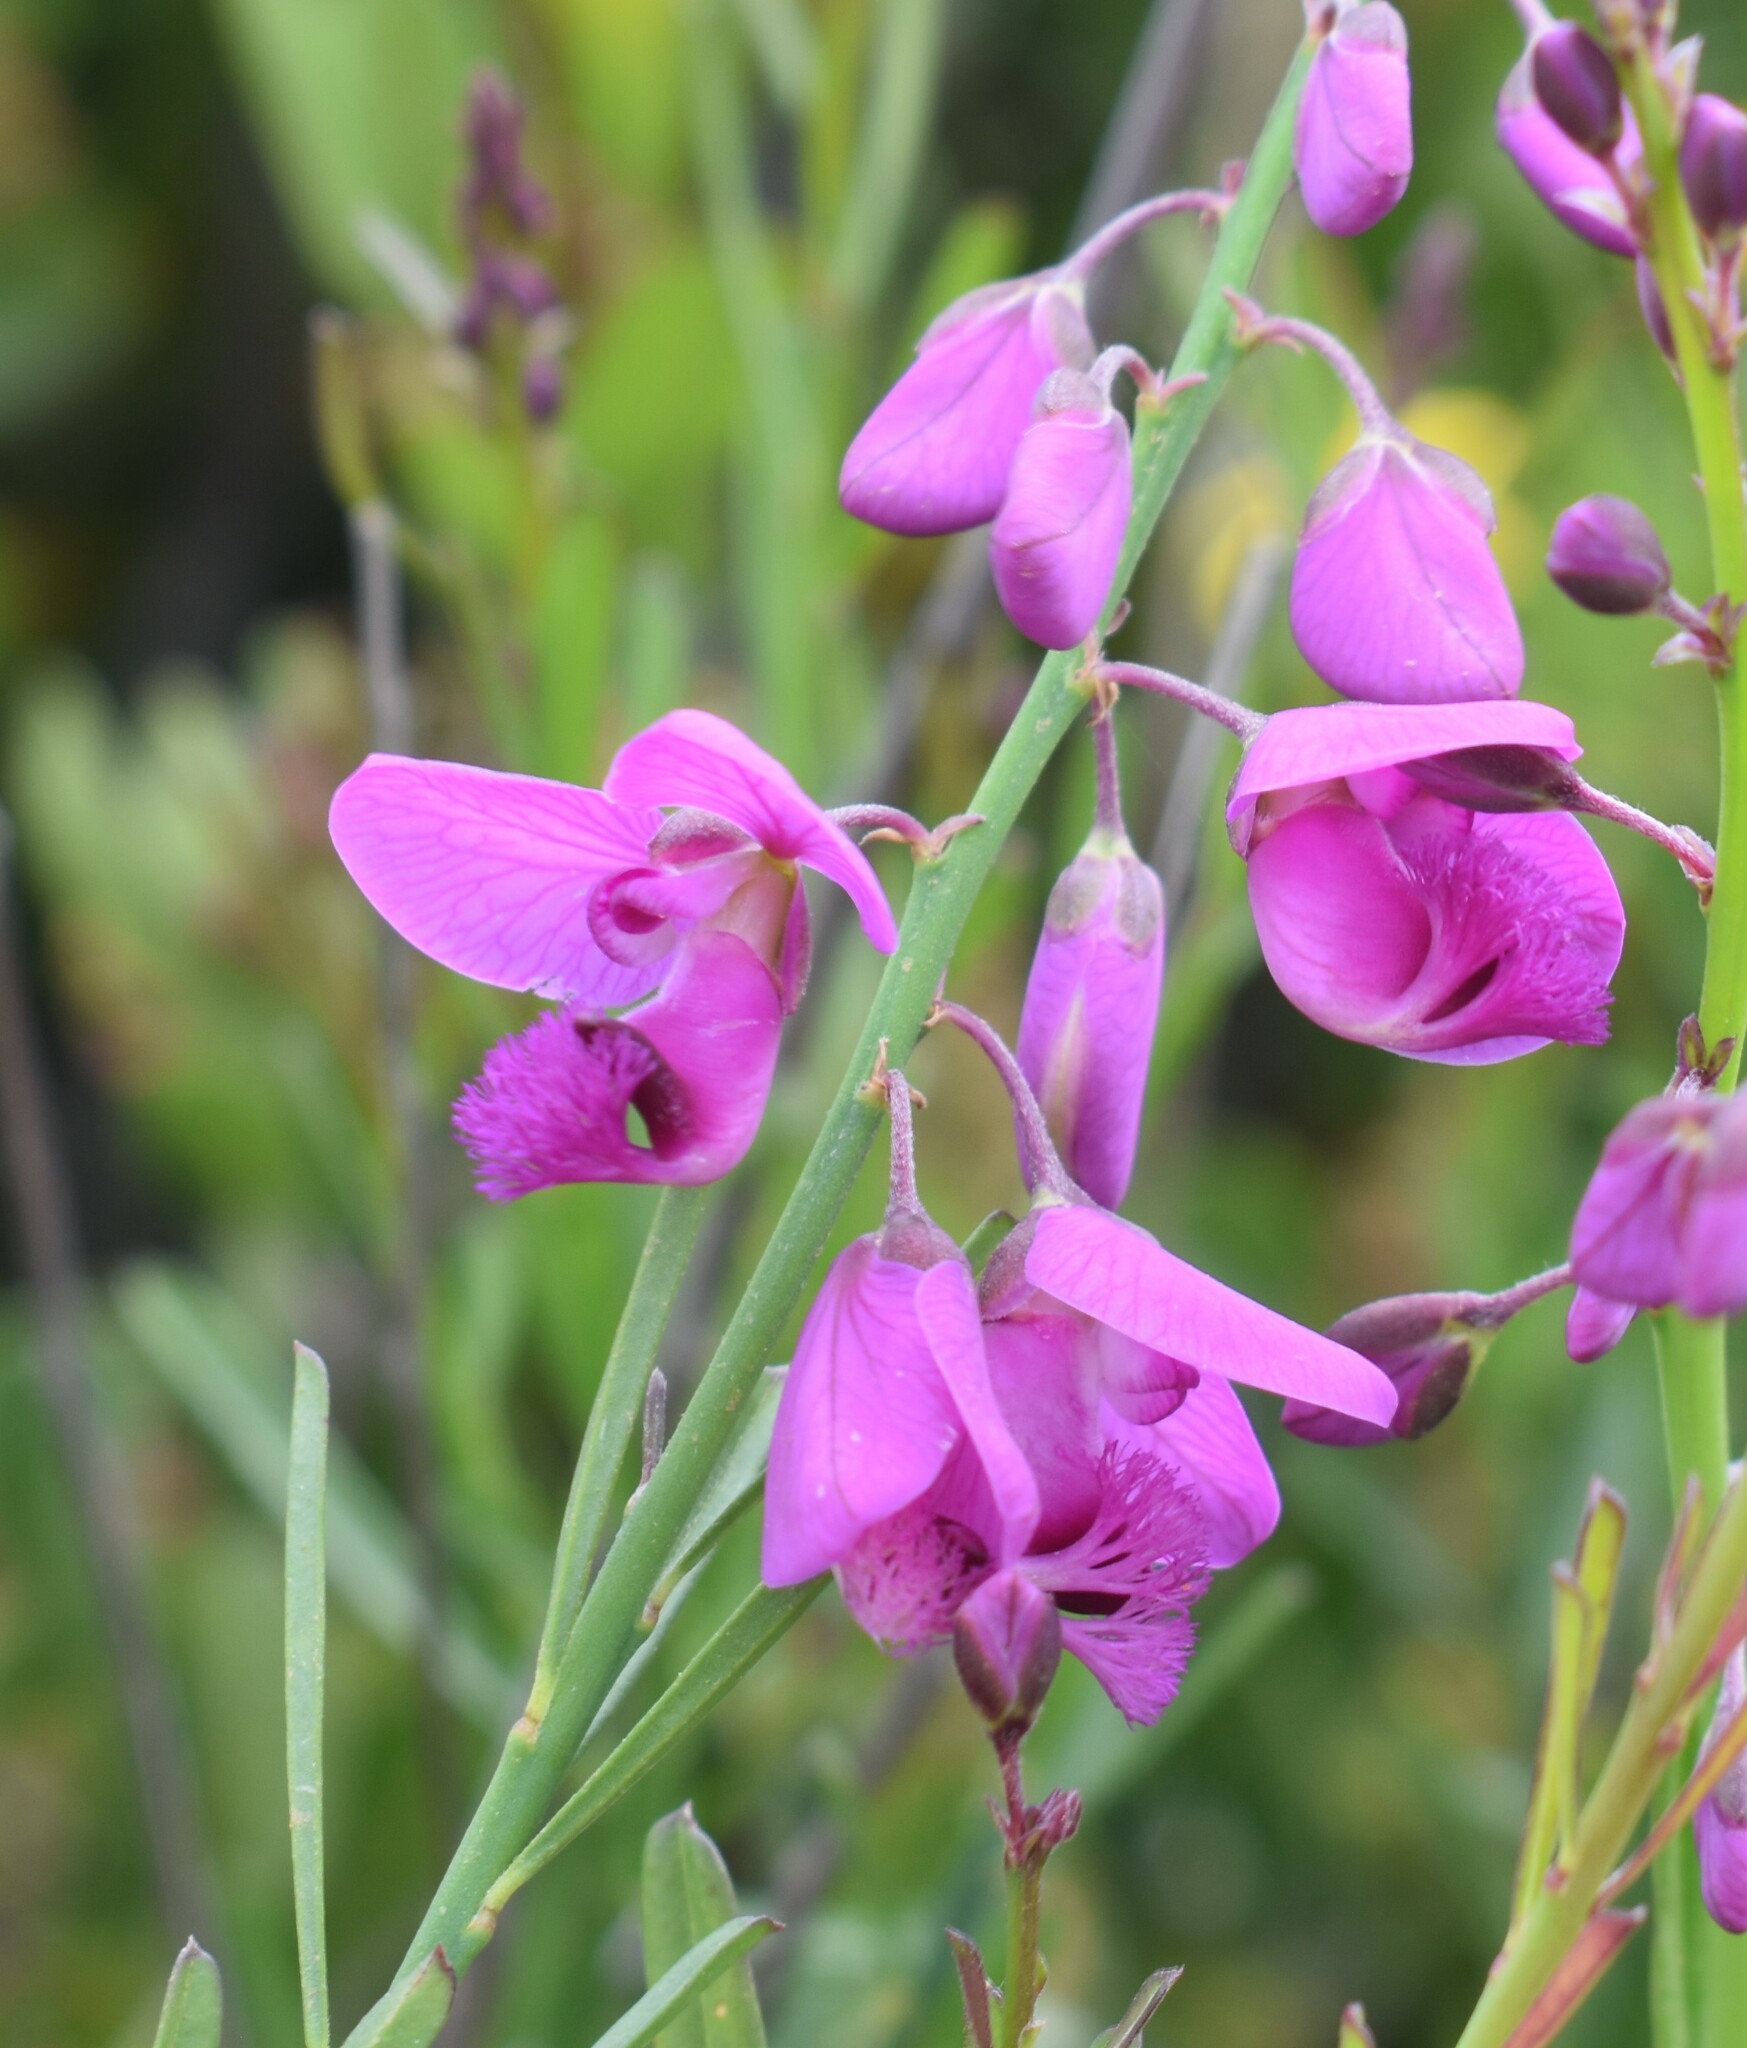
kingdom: Plantae
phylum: Tracheophyta
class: Magnoliopsida
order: Fabales
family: Polygalaceae
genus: Polygala
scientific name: Polygala virgata
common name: Milkwort
